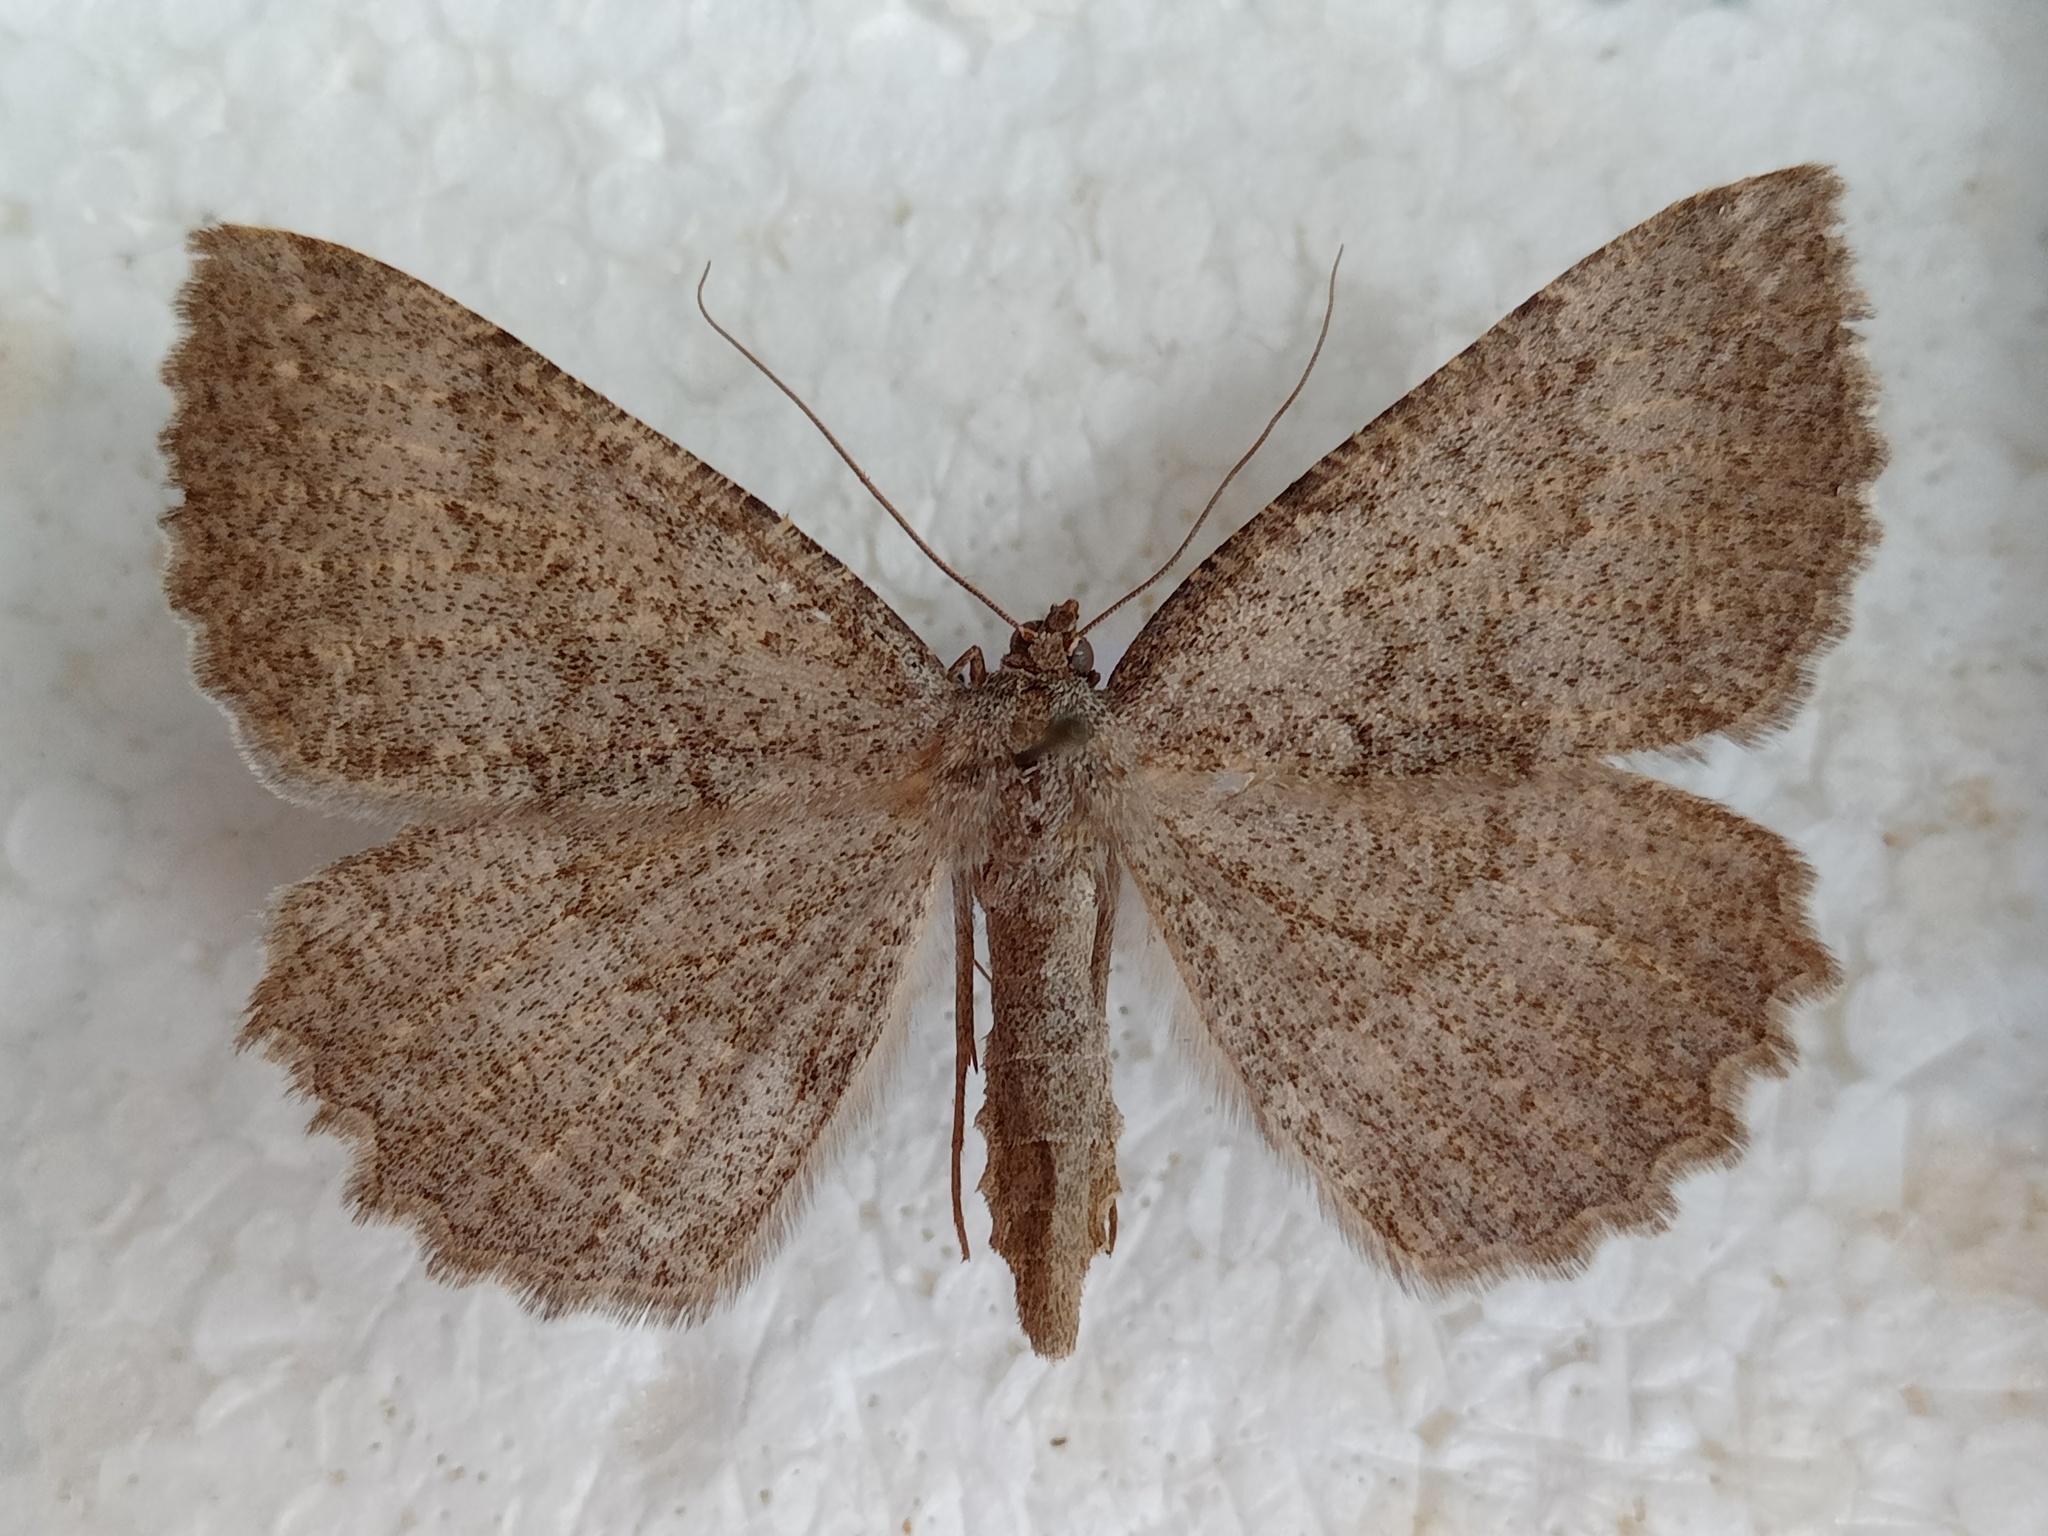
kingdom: Animalia
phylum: Arthropoda
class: Insecta
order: Lepidoptera
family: Geometridae
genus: Gnophos
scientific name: Gnophos furvata
